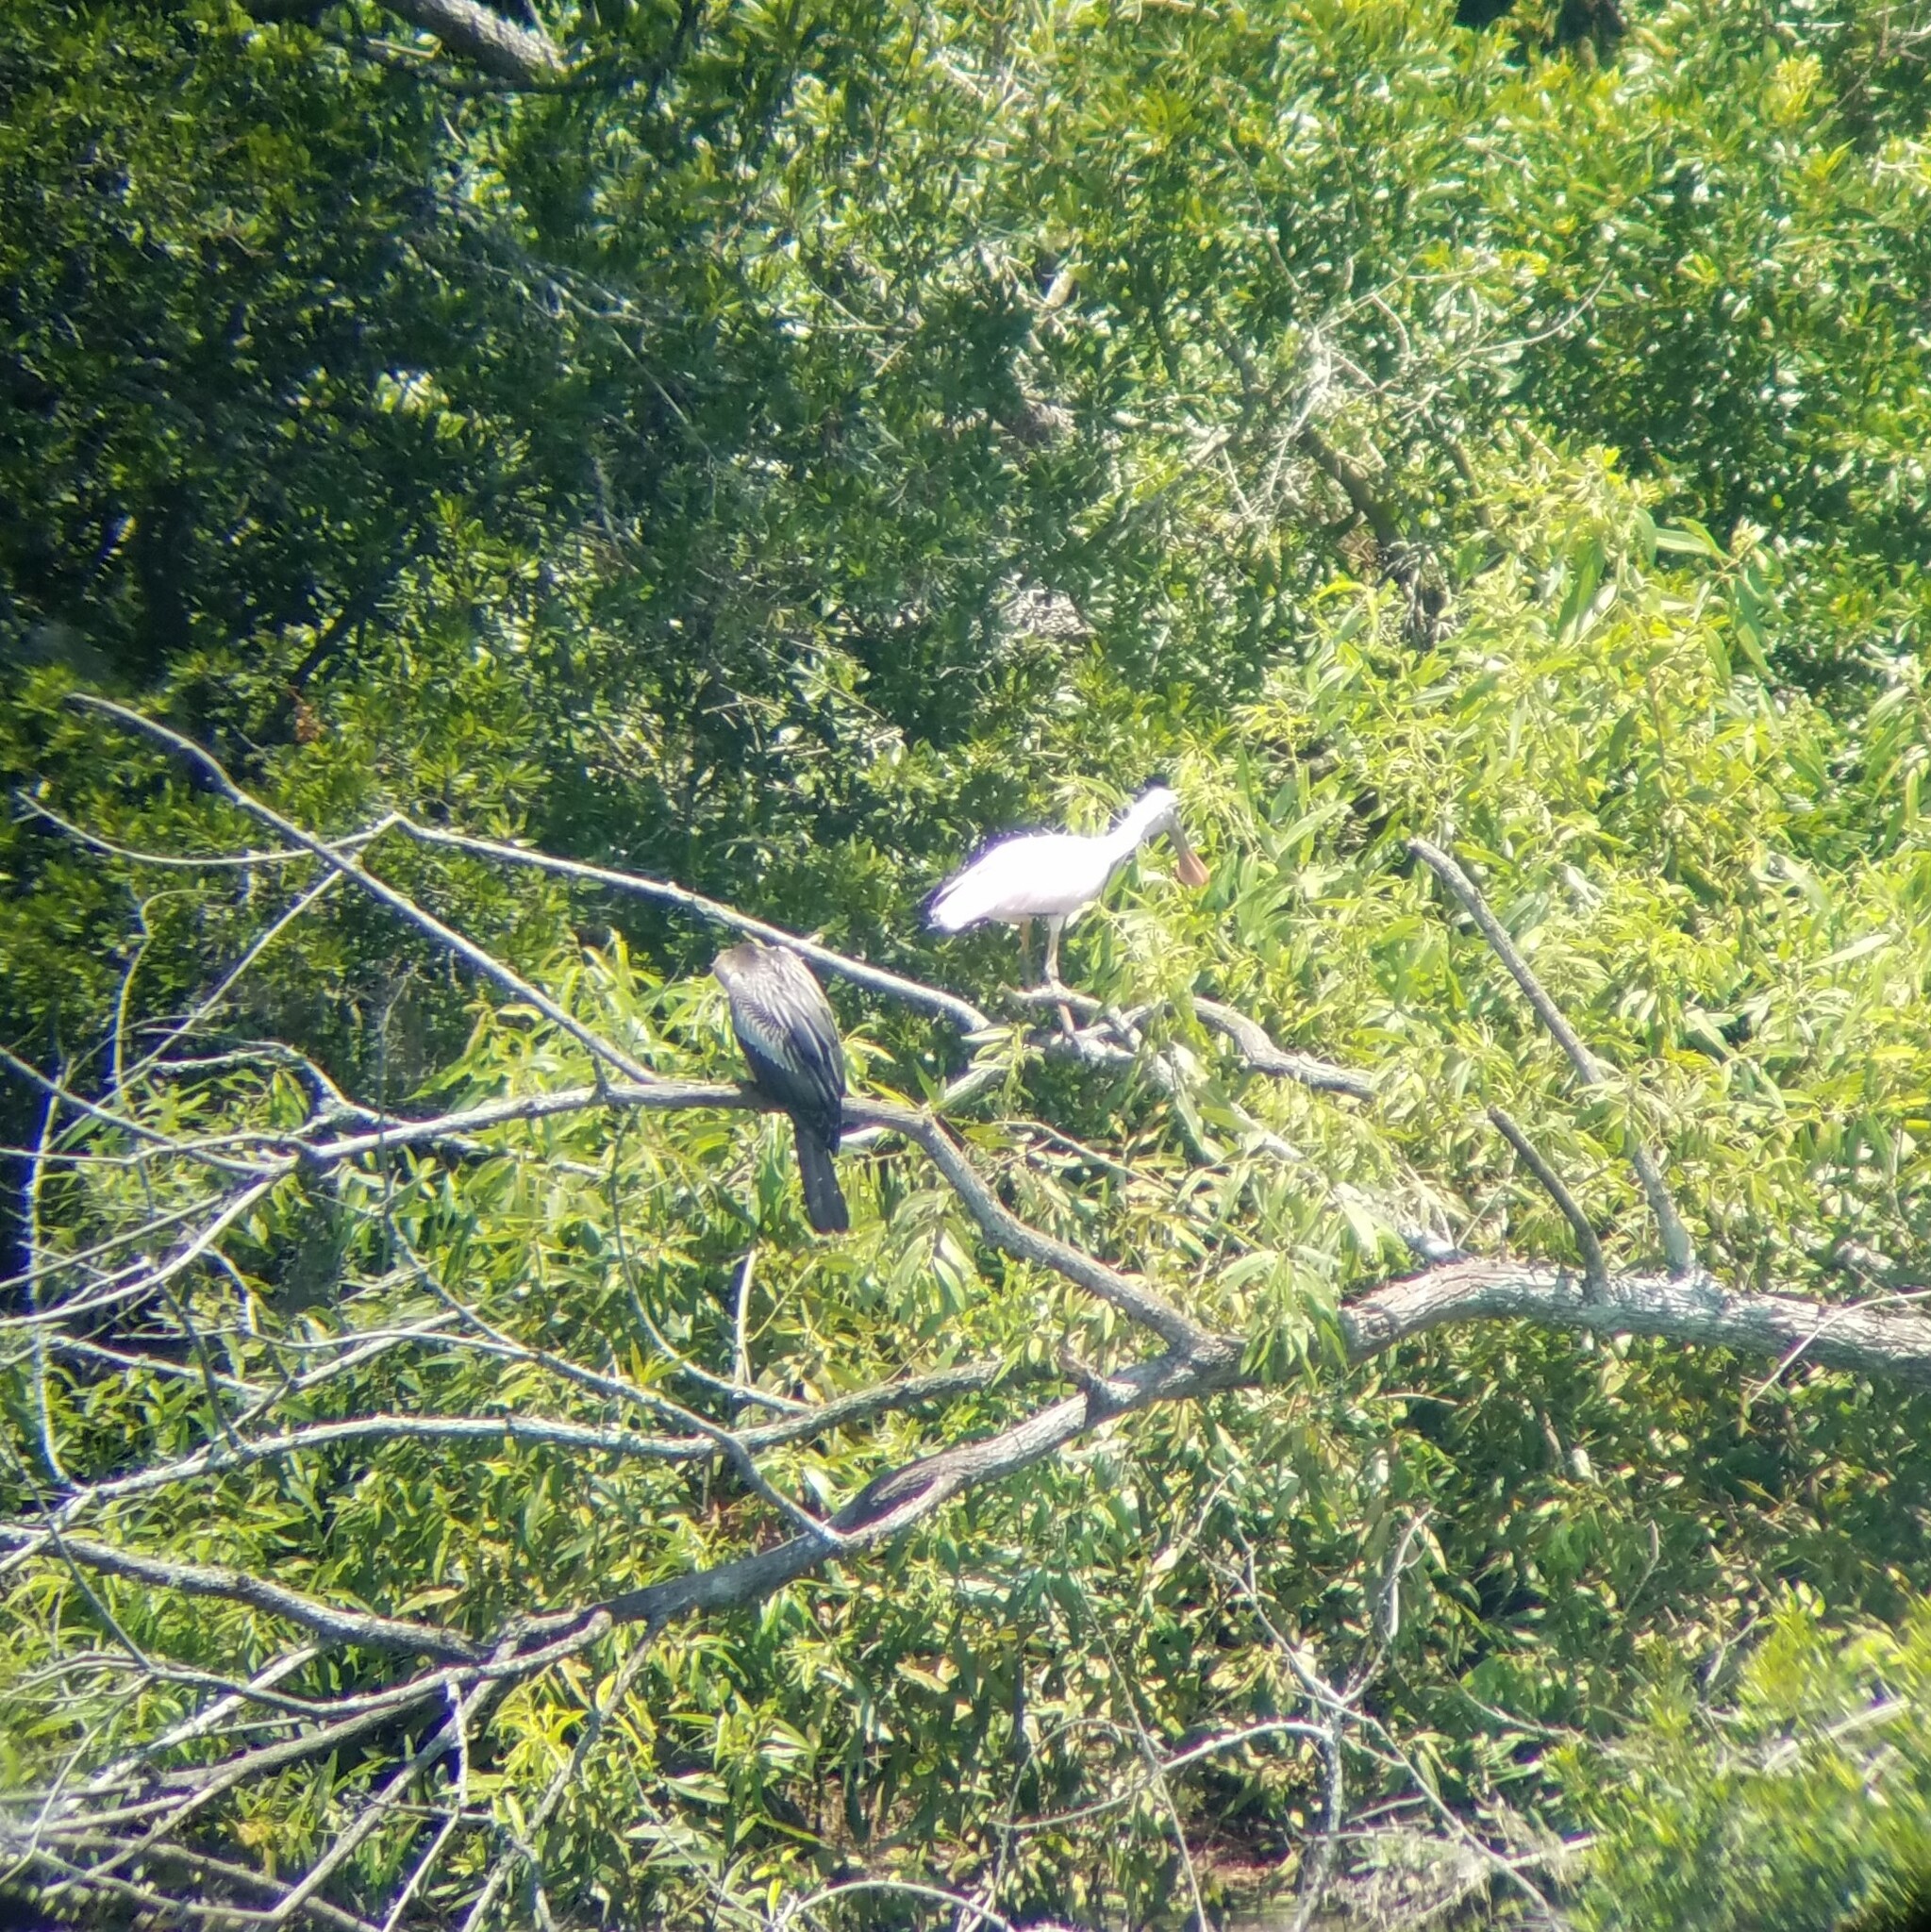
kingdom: Animalia
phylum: Chordata
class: Aves
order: Pelecaniformes
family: Threskiornithidae
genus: Platalea
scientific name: Platalea ajaja
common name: Roseate spoonbill
